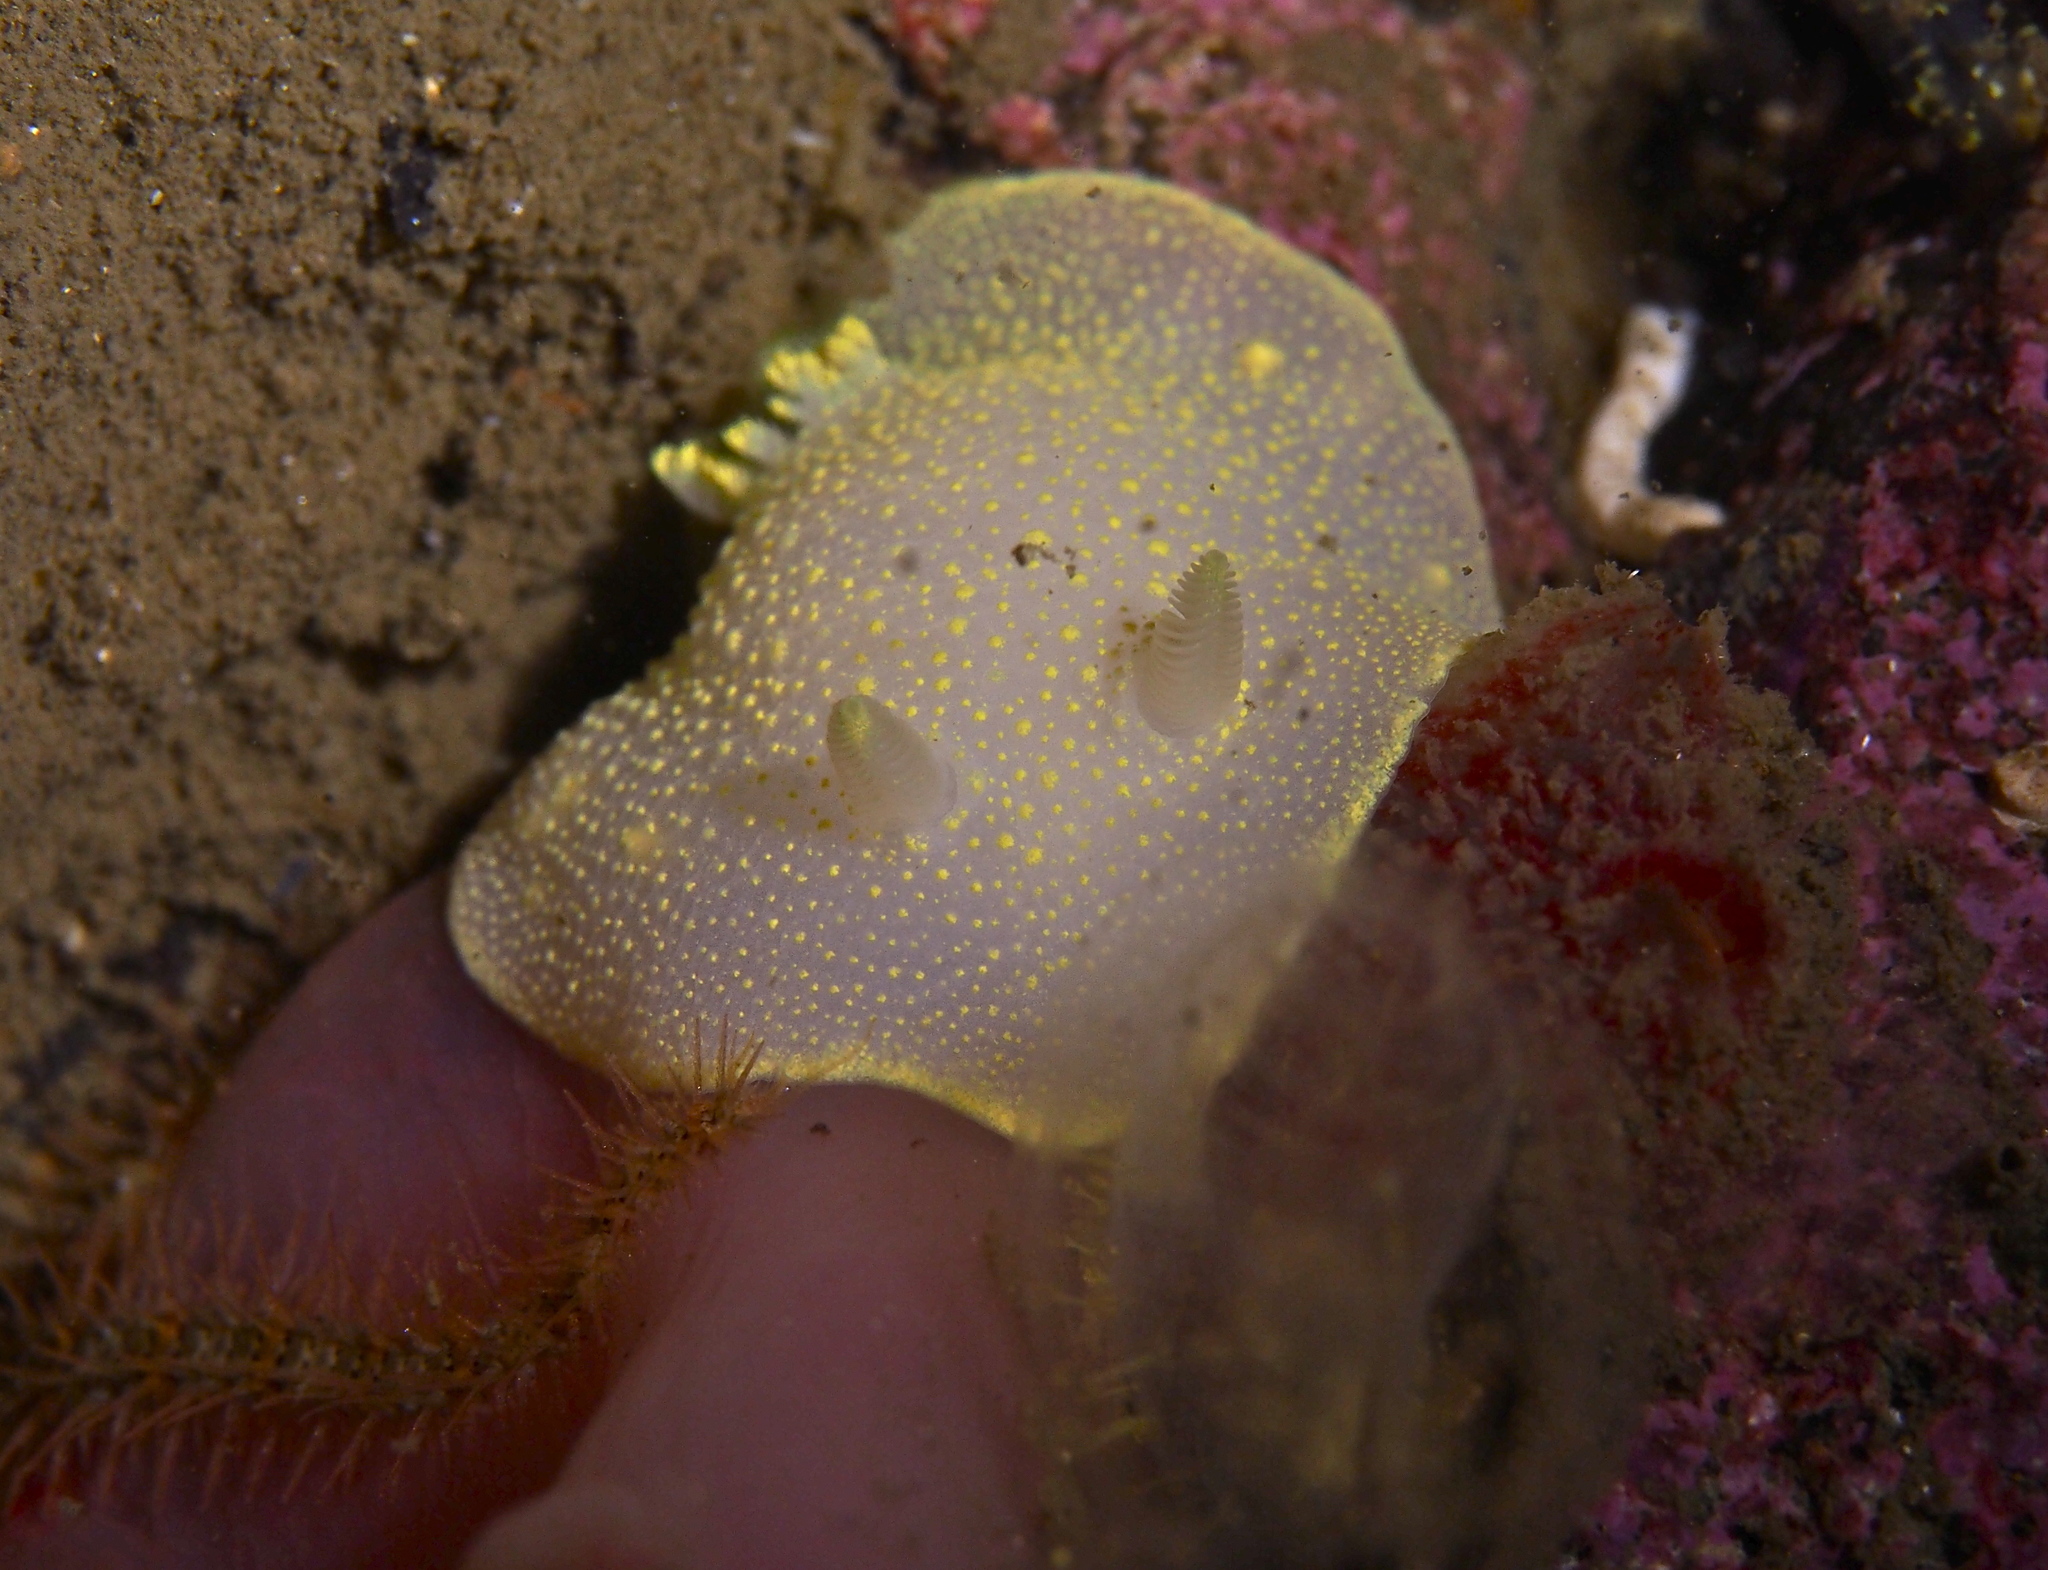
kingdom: Animalia
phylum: Mollusca
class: Gastropoda
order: Nudibranchia
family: Cadlinidae
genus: Cadlina
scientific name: Cadlina laevis
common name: White atlantic cadlina
